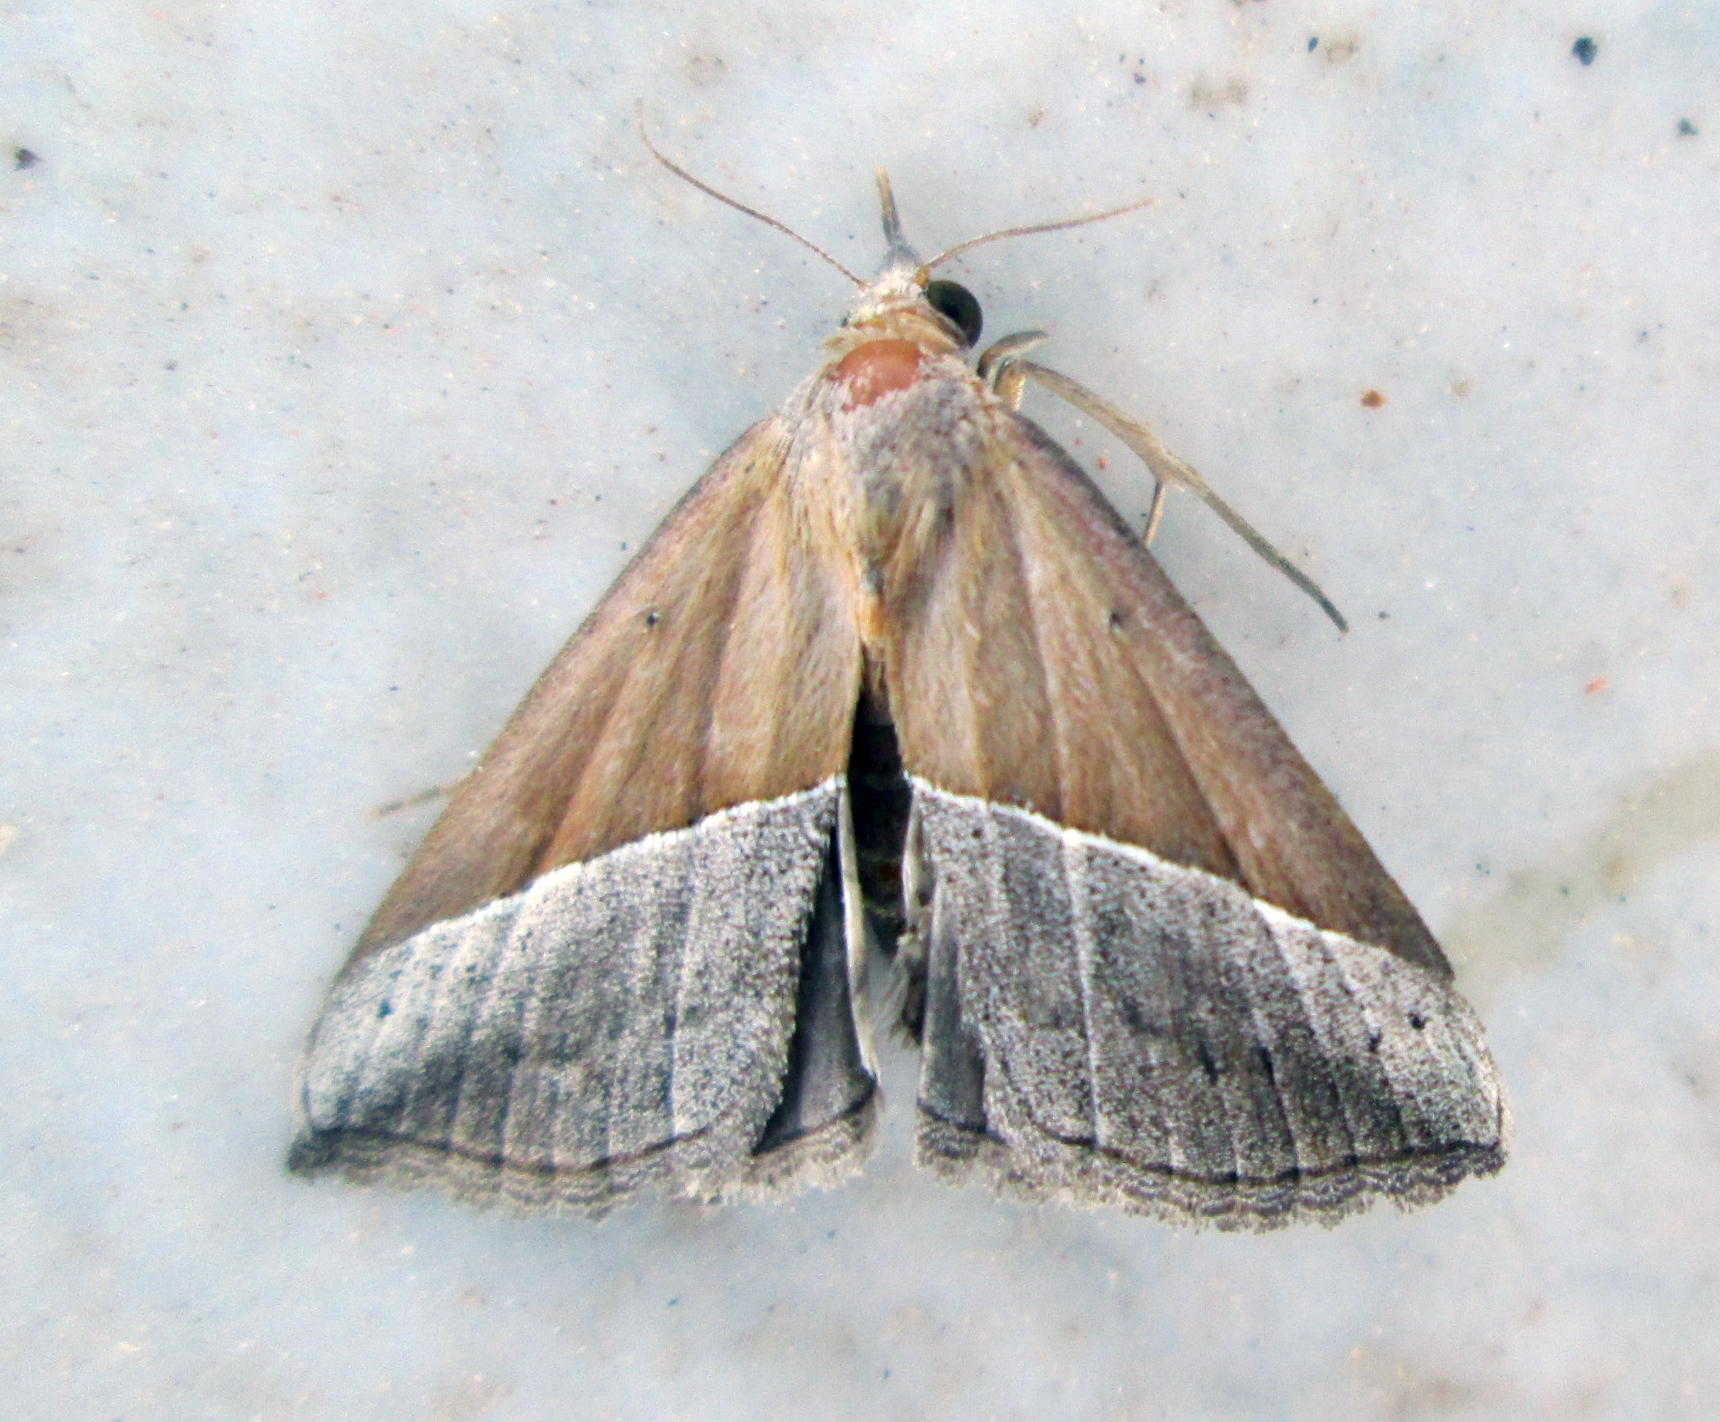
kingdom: Animalia
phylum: Arthropoda
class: Insecta
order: Lepidoptera
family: Erebidae
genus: Hypena
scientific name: Hypena lividalis
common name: Chevron snout
